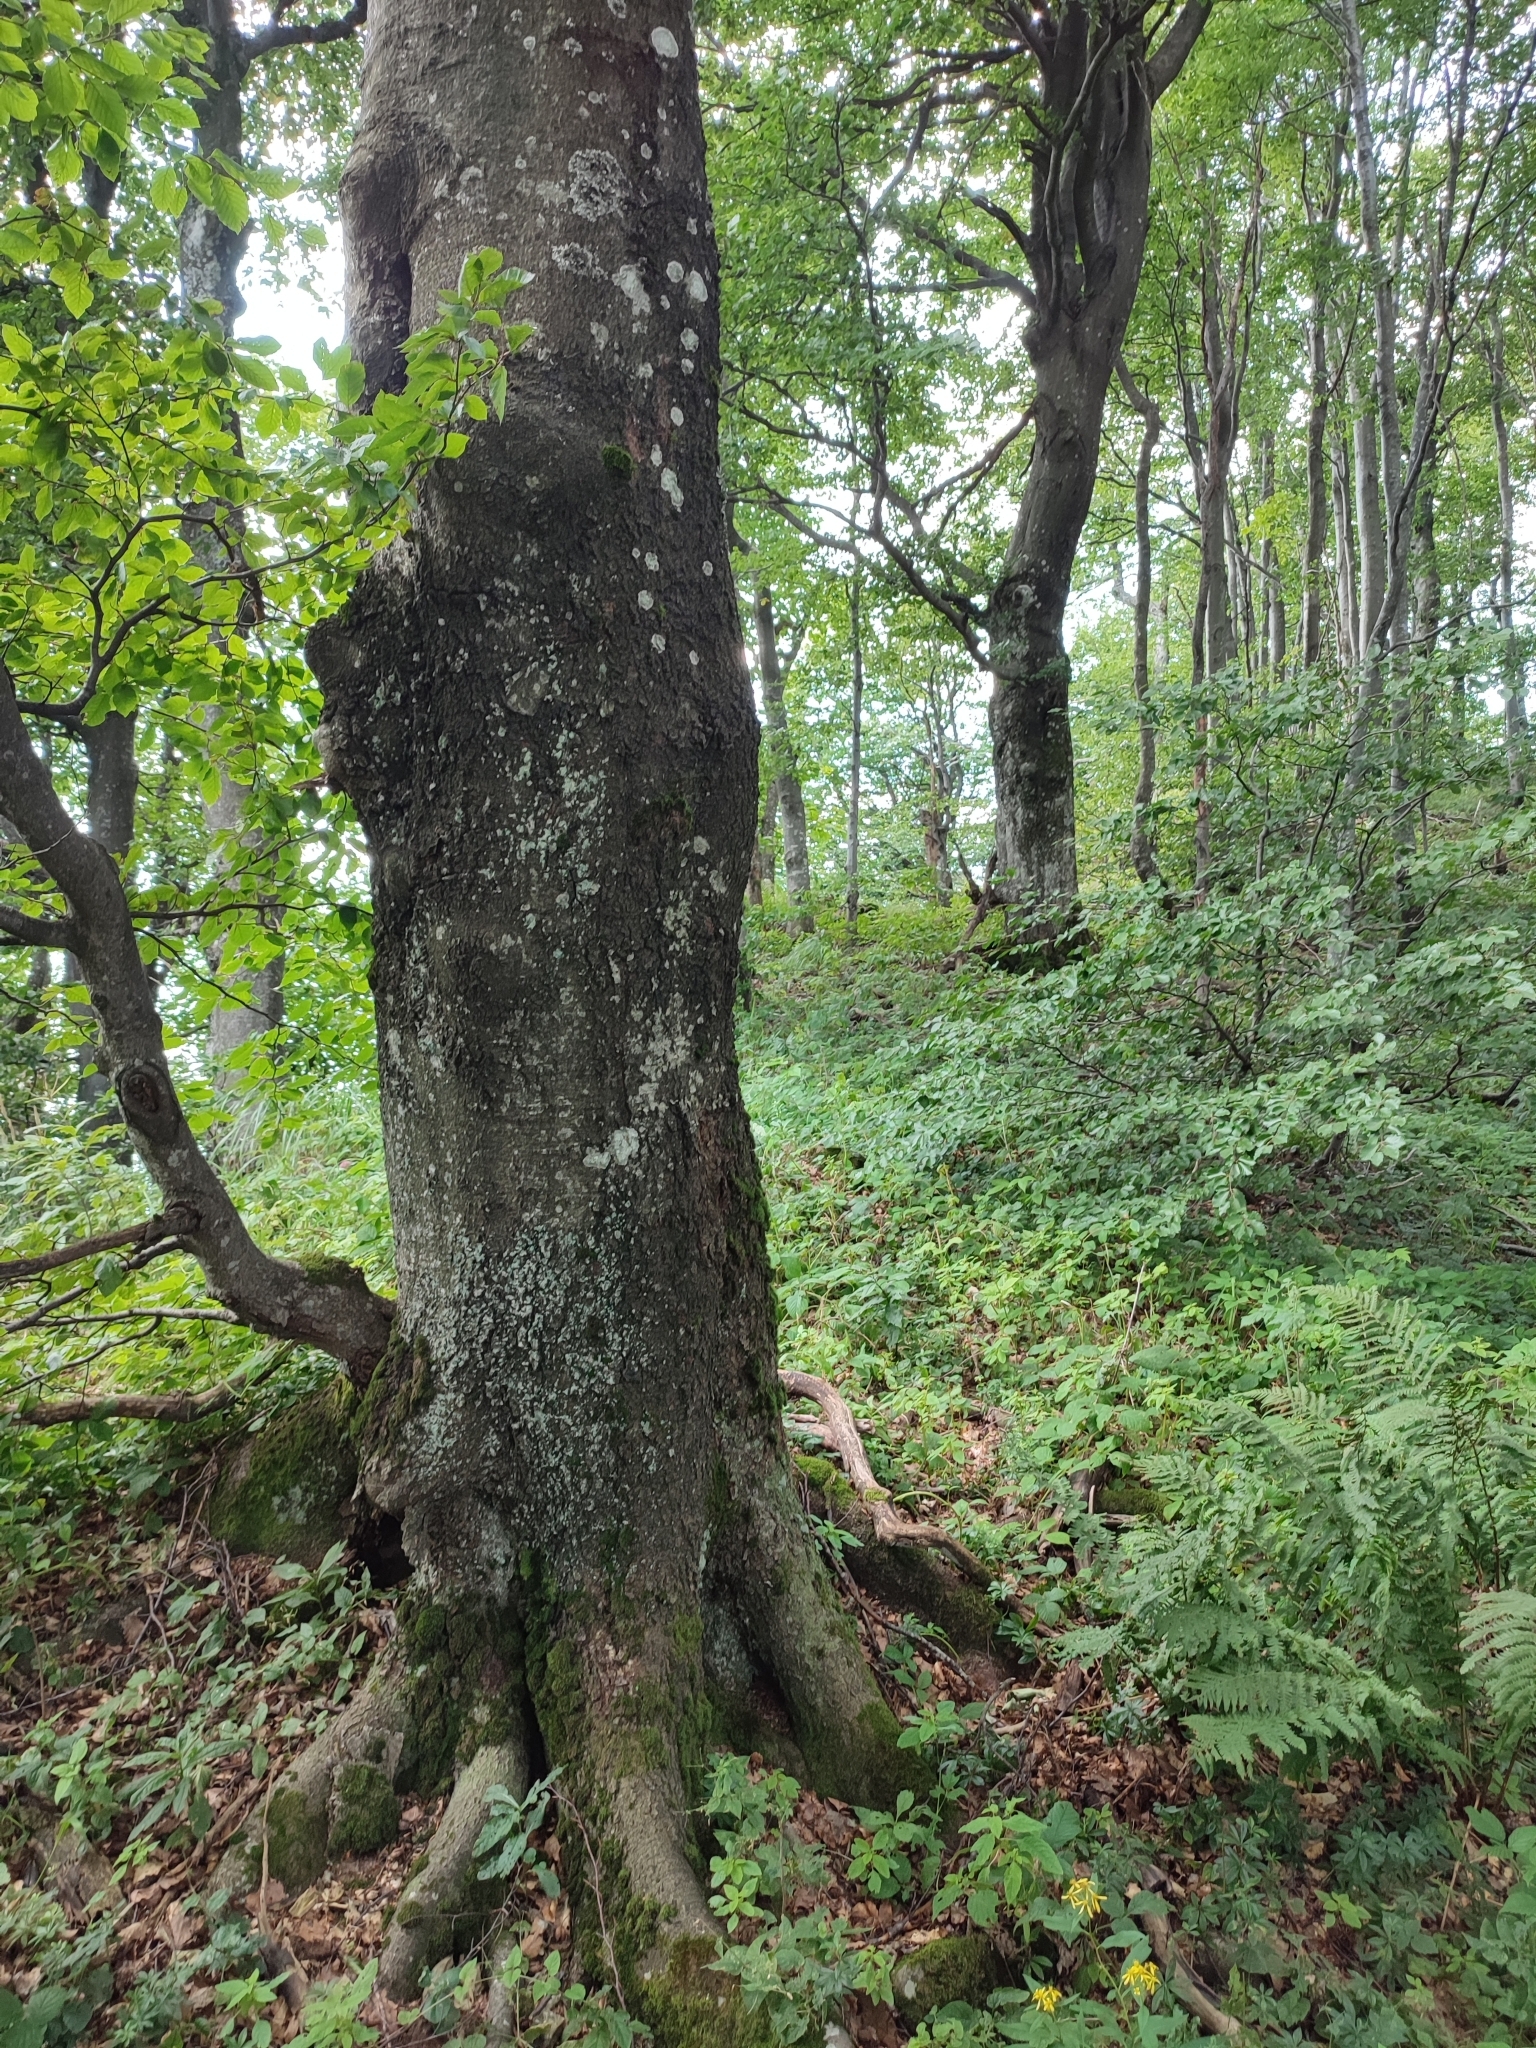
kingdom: Plantae
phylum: Tracheophyta
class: Magnoliopsida
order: Fagales
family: Fagaceae
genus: Fagus
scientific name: Fagus sylvatica
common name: Beech
